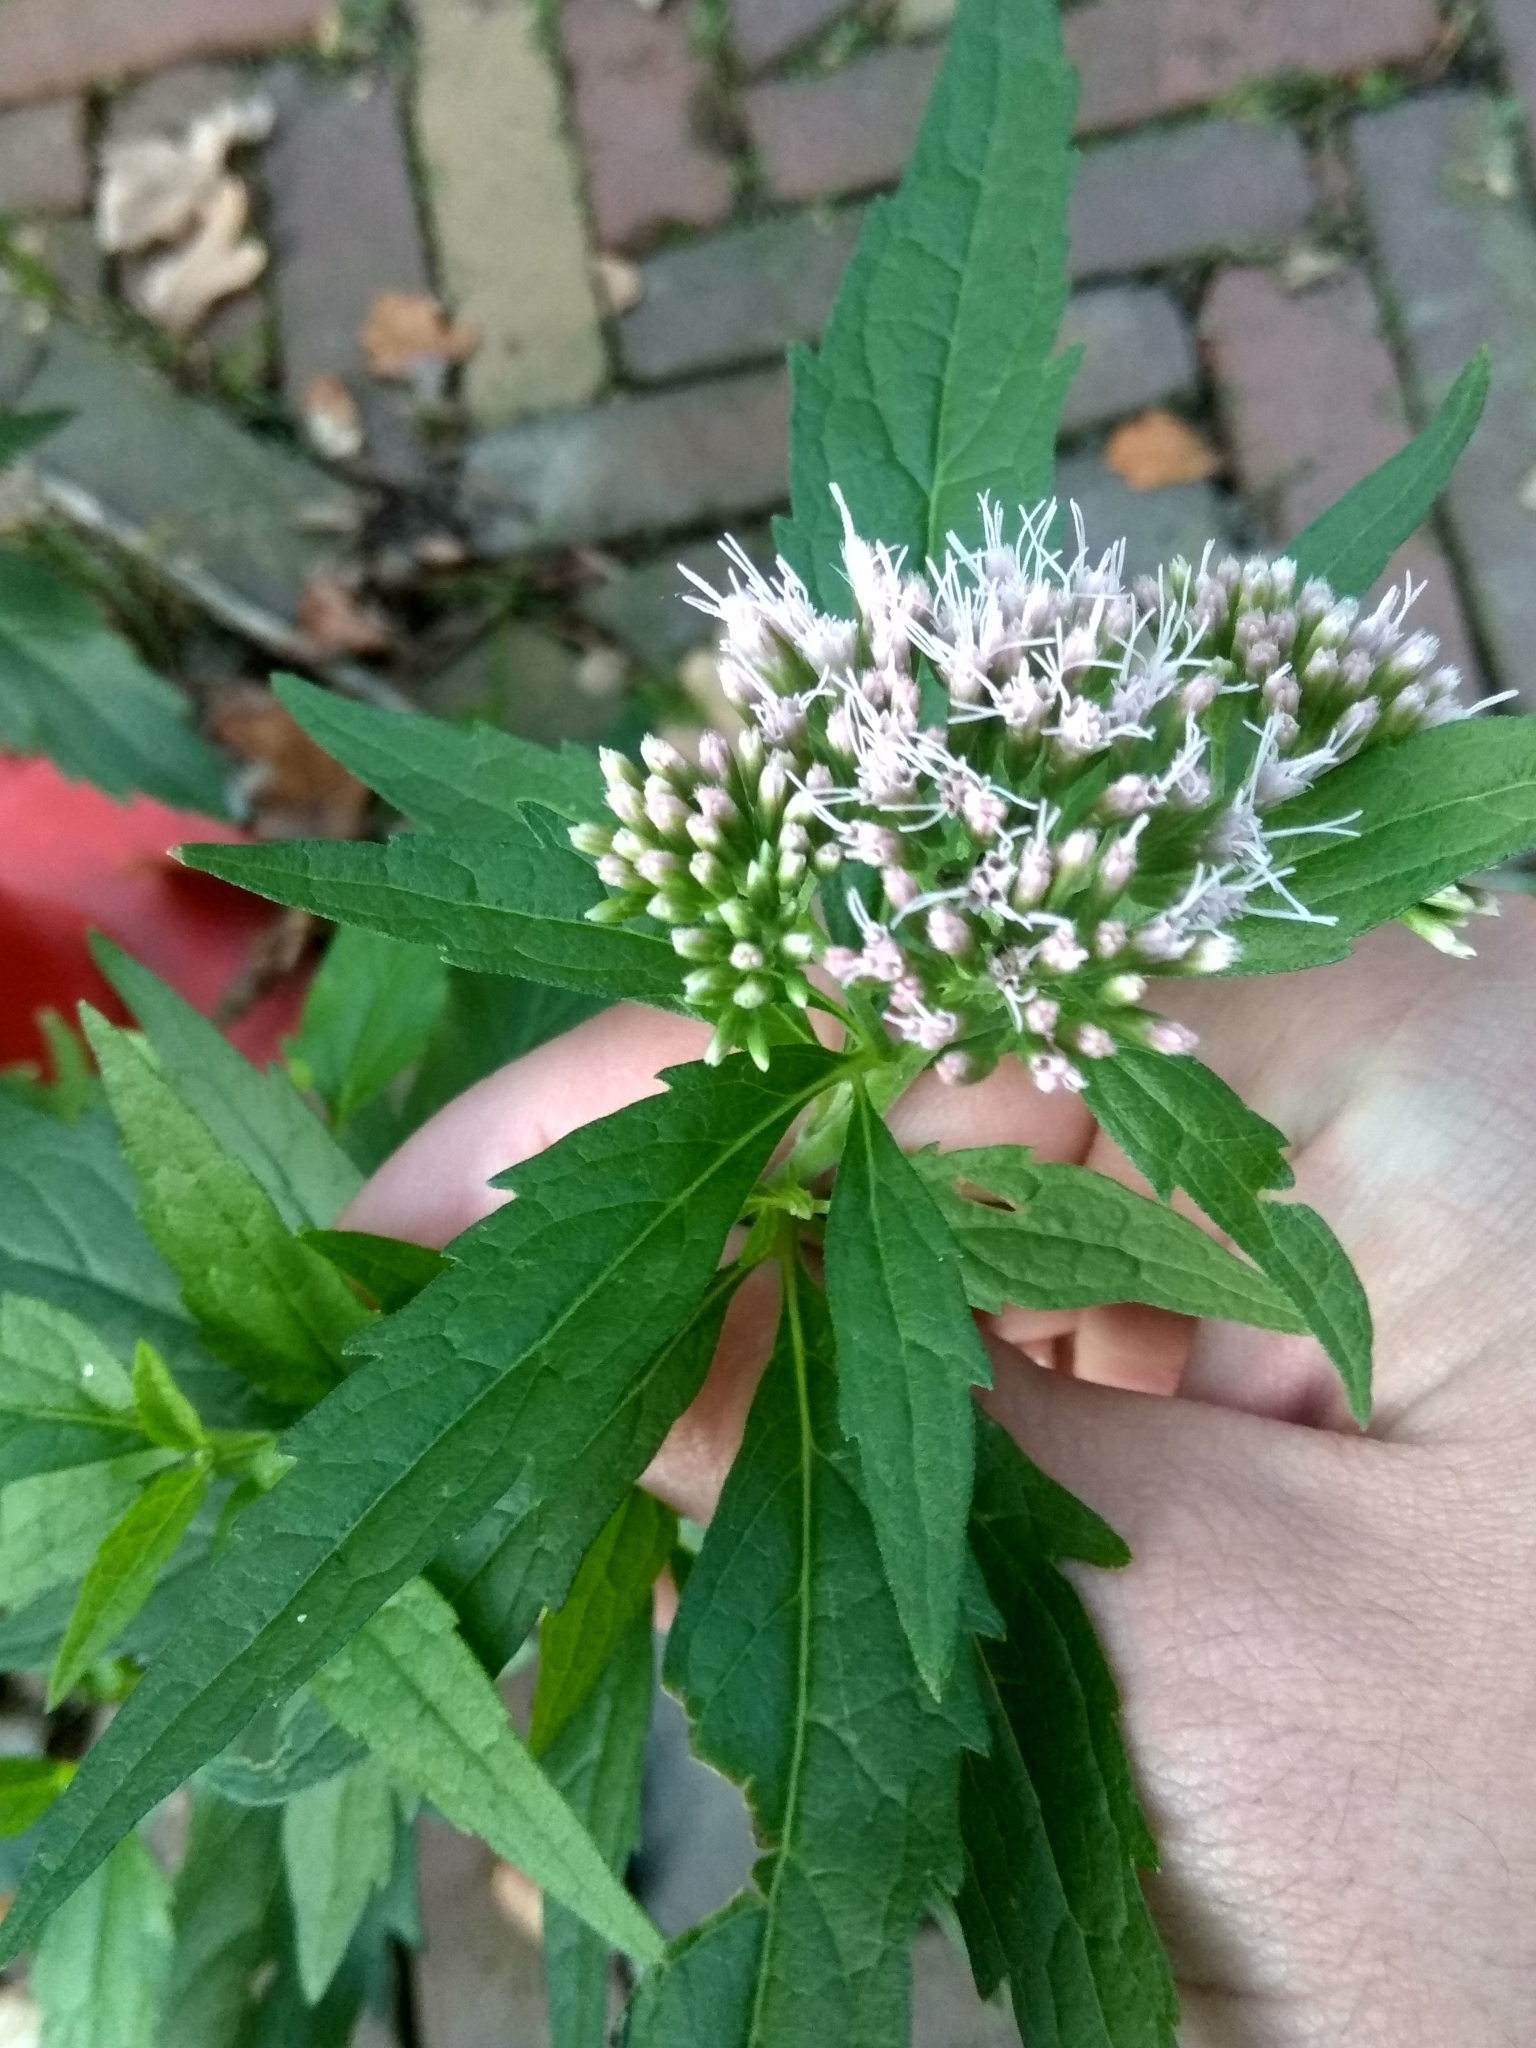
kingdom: Plantae
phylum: Tracheophyta
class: Magnoliopsida
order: Asterales
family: Asteraceae
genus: Eupatorium
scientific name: Eupatorium cannabinum
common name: Hemp-agrimony
